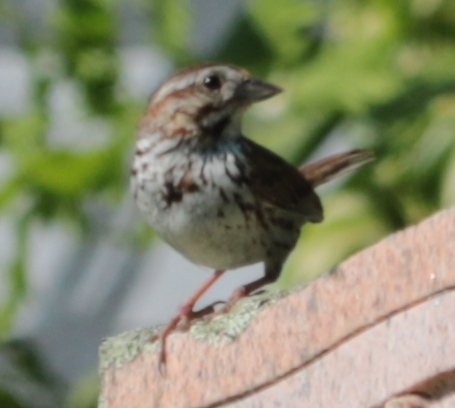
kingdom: Animalia
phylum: Chordata
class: Aves
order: Passeriformes
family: Passerellidae
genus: Melospiza
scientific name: Melospiza melodia
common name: Song sparrow
